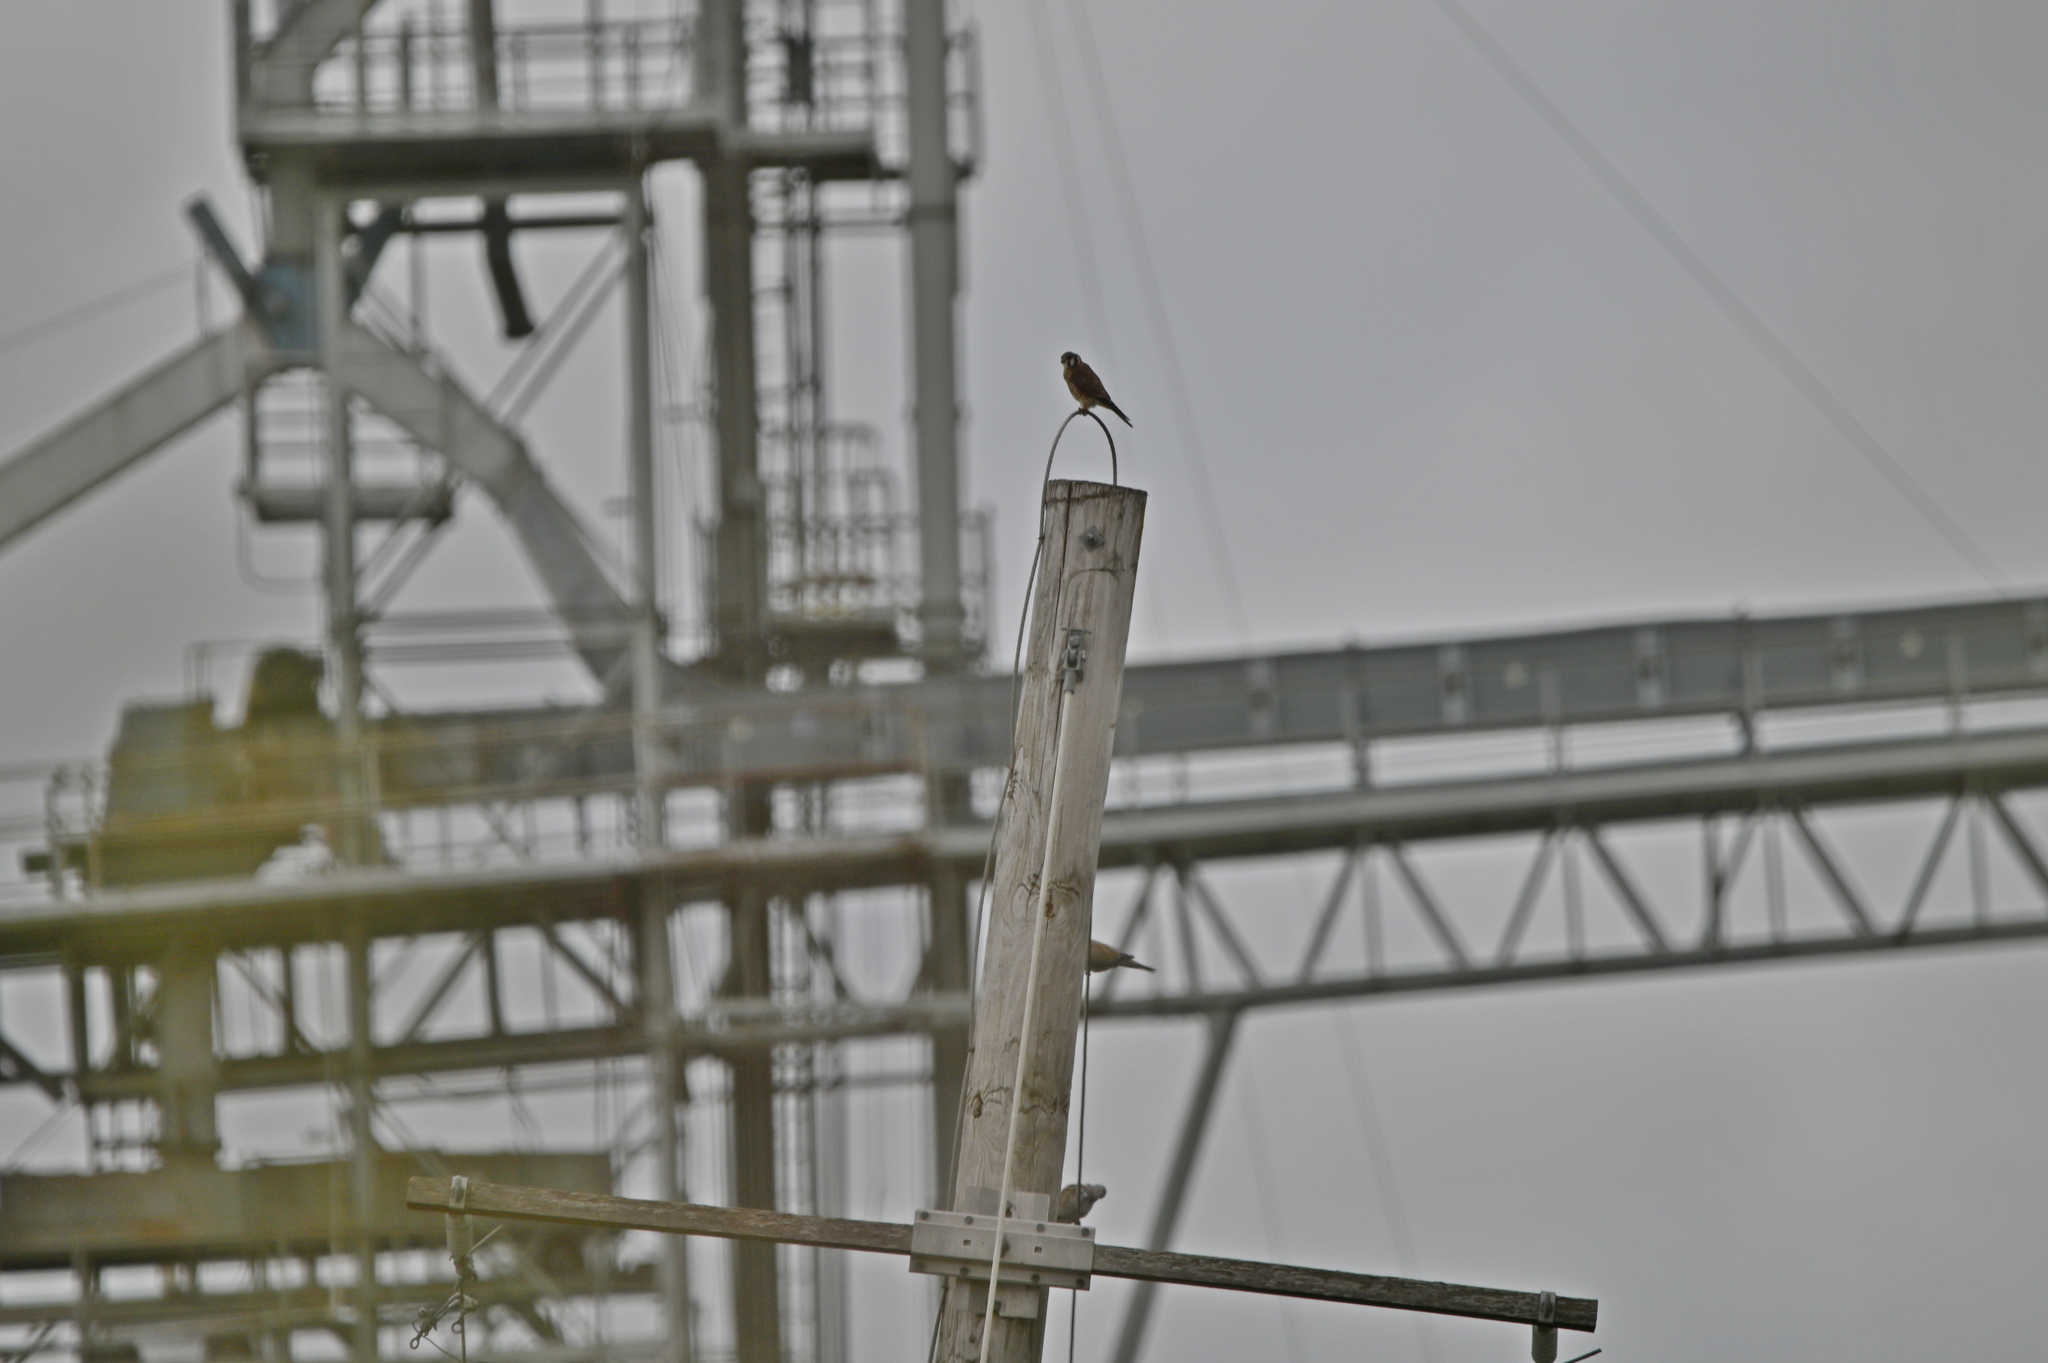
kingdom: Animalia
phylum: Chordata
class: Aves
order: Falconiformes
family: Falconidae
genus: Falco
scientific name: Falco sparverius
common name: American kestrel
